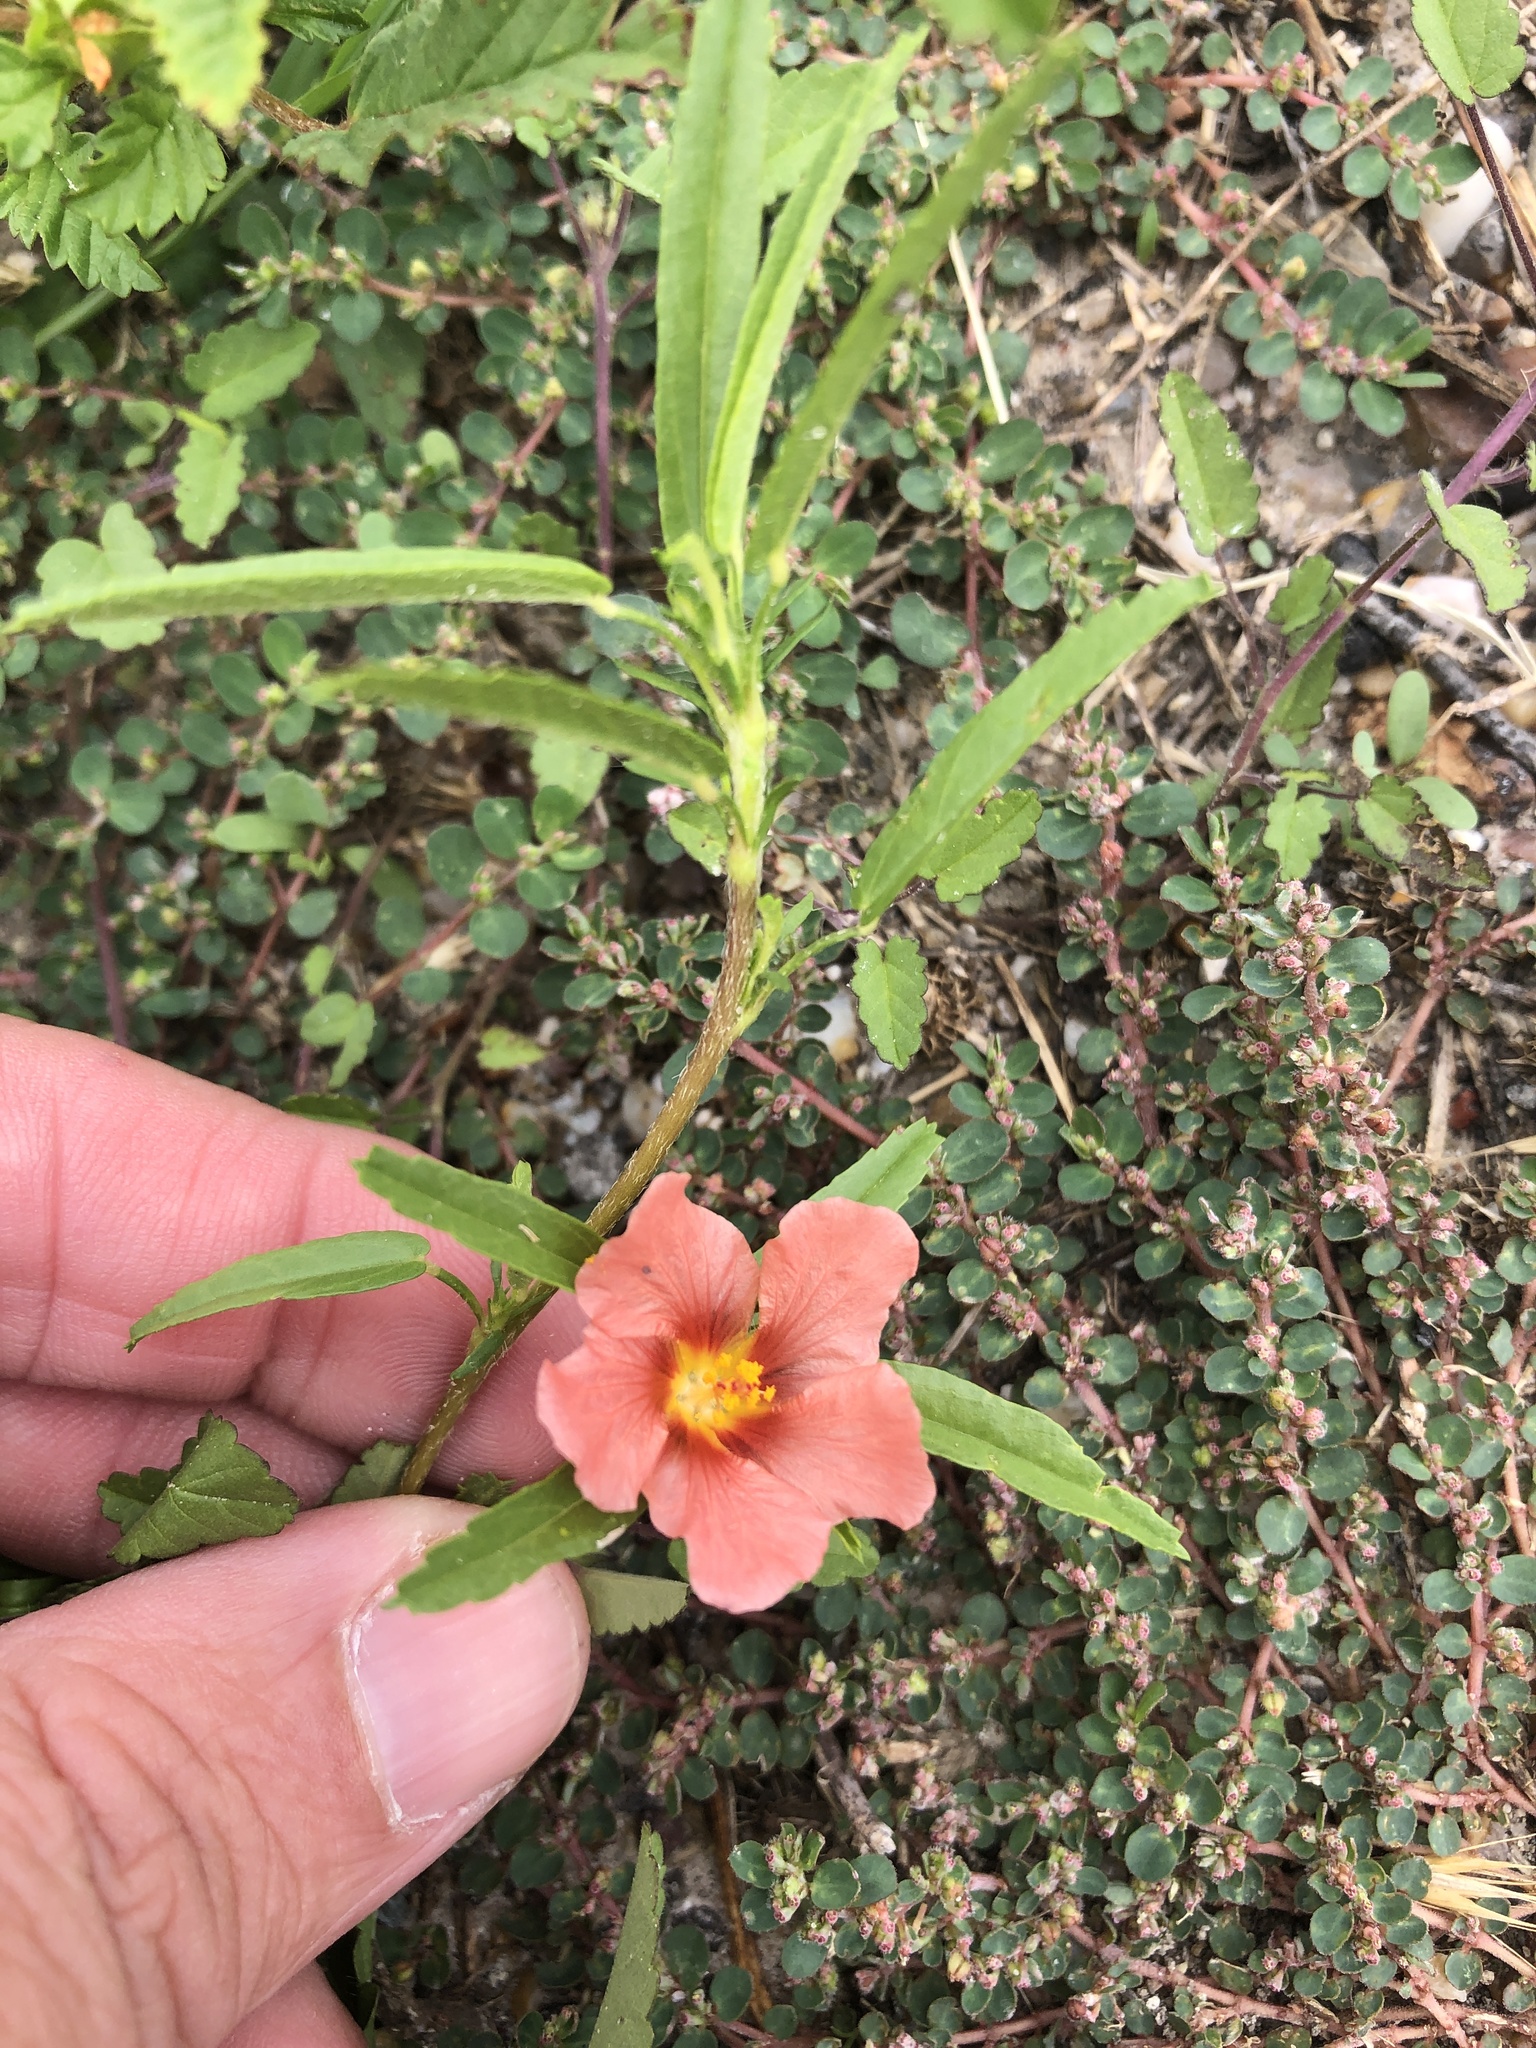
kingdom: Plantae
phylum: Tracheophyta
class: Magnoliopsida
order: Malvales
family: Malvaceae
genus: Sida
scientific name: Sida ciliaris
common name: Bracted fanpetals
